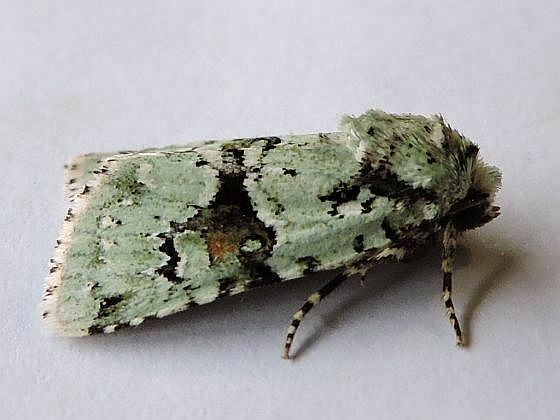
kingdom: Animalia
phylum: Arthropoda
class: Insecta
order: Lepidoptera
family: Noctuidae
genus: Lacinipolia
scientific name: Lacinipolia implicata
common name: Implicit arches
